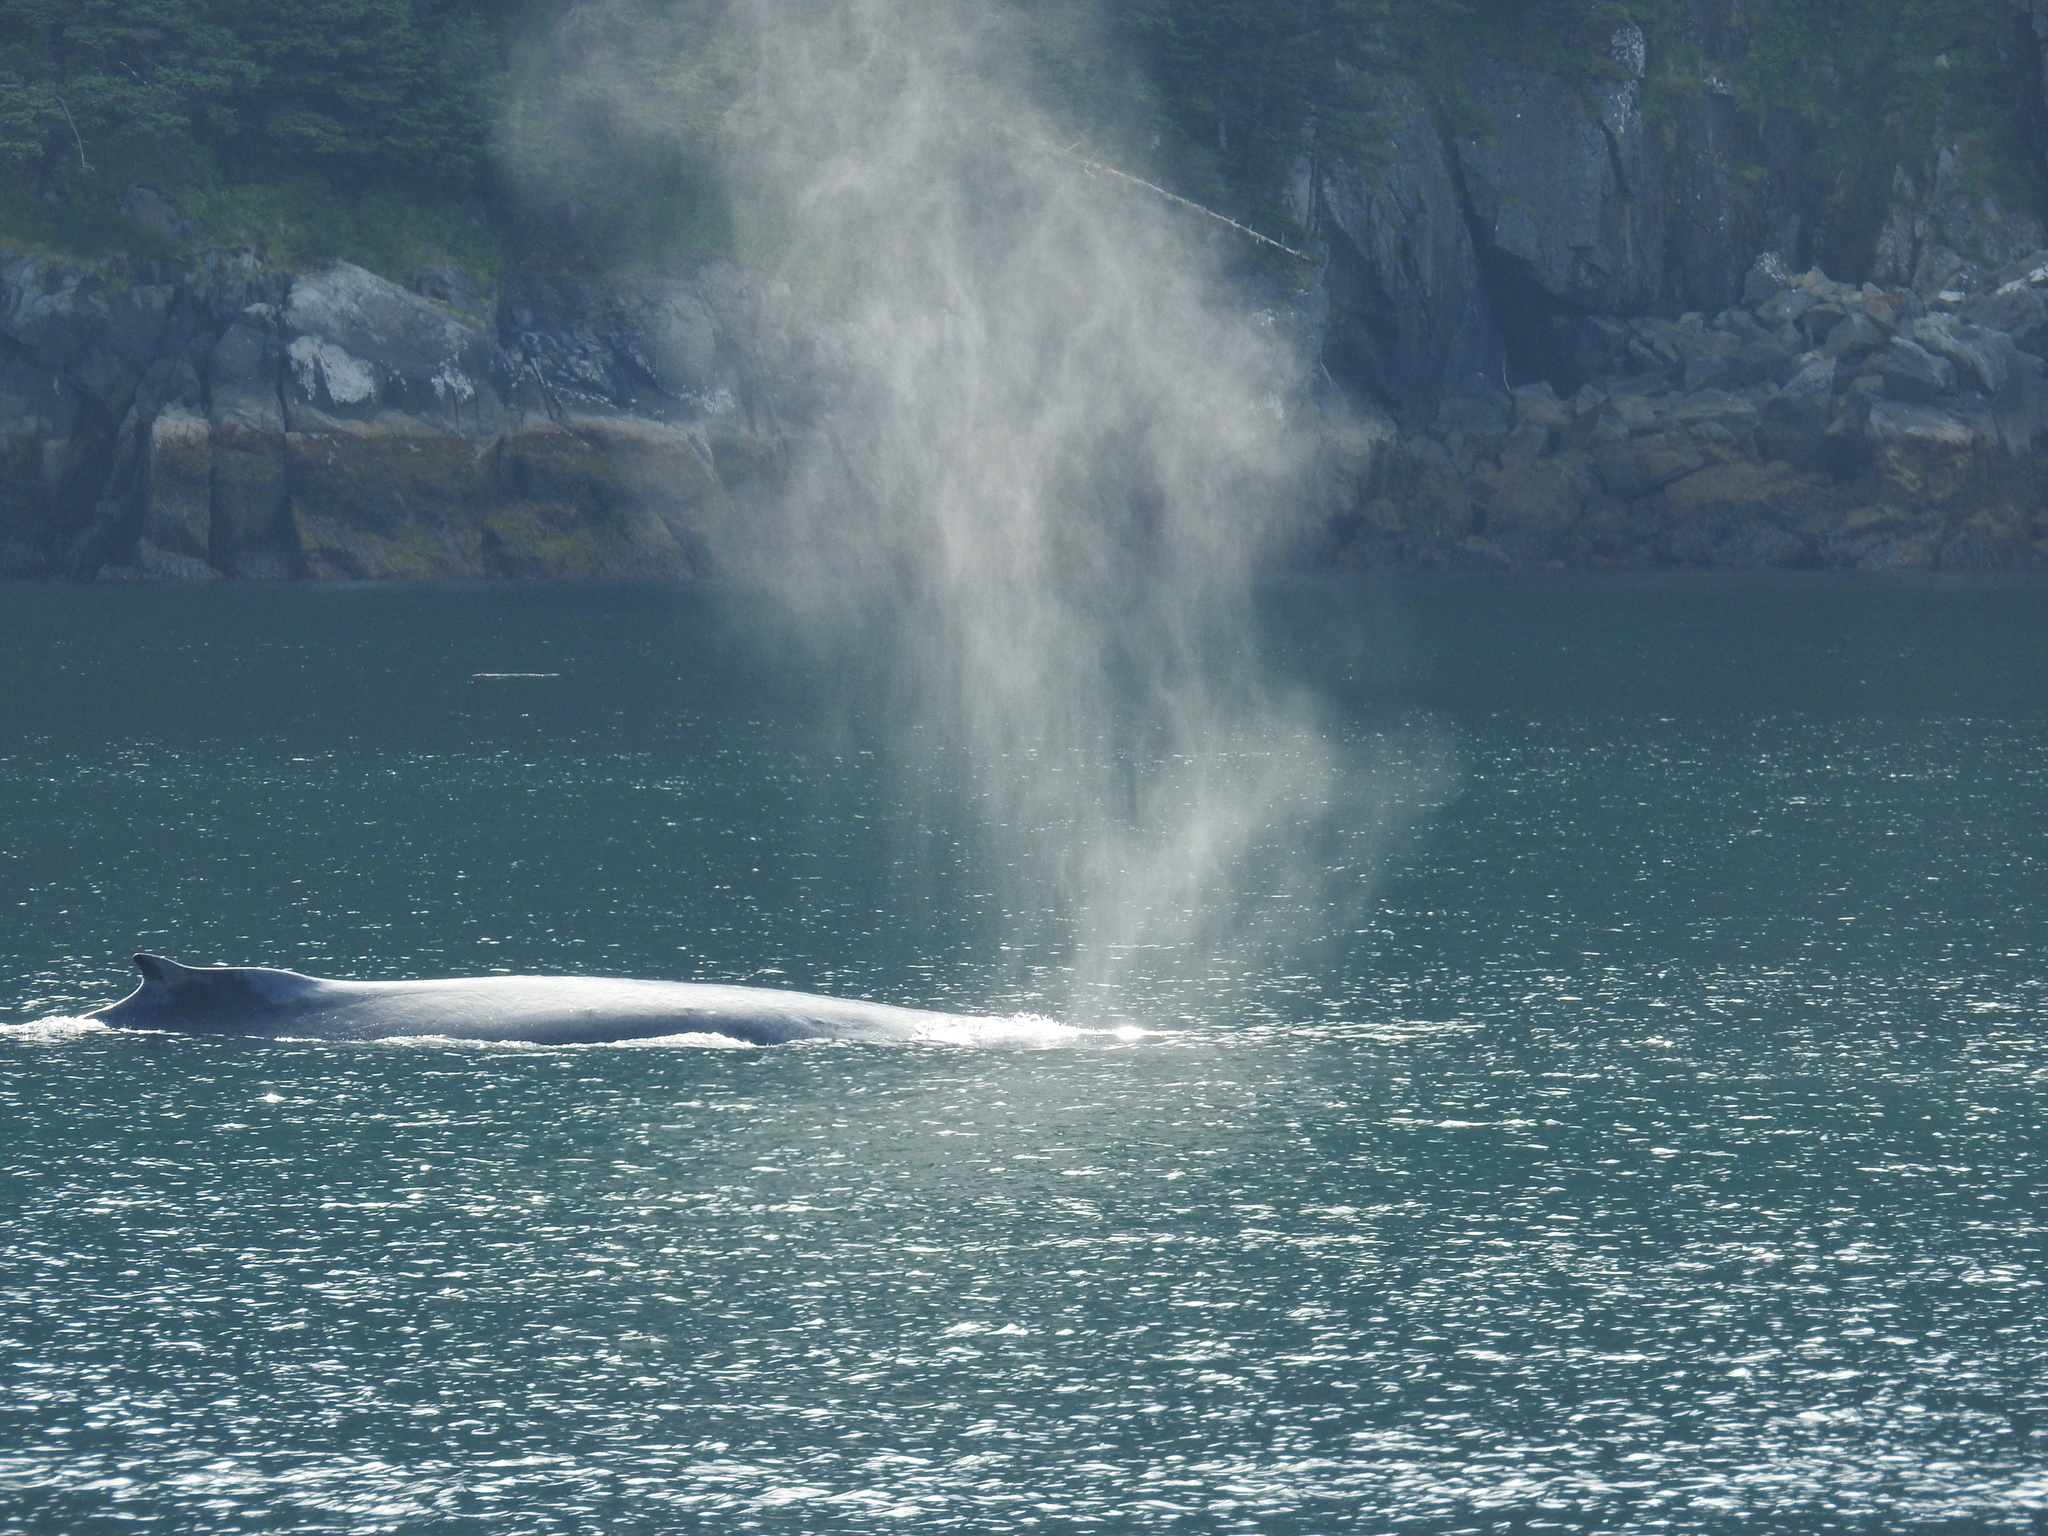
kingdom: Animalia
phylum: Chordata
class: Mammalia
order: Cetacea
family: Balaenopteridae
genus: Megaptera
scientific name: Megaptera novaeangliae
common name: Humpback whale
